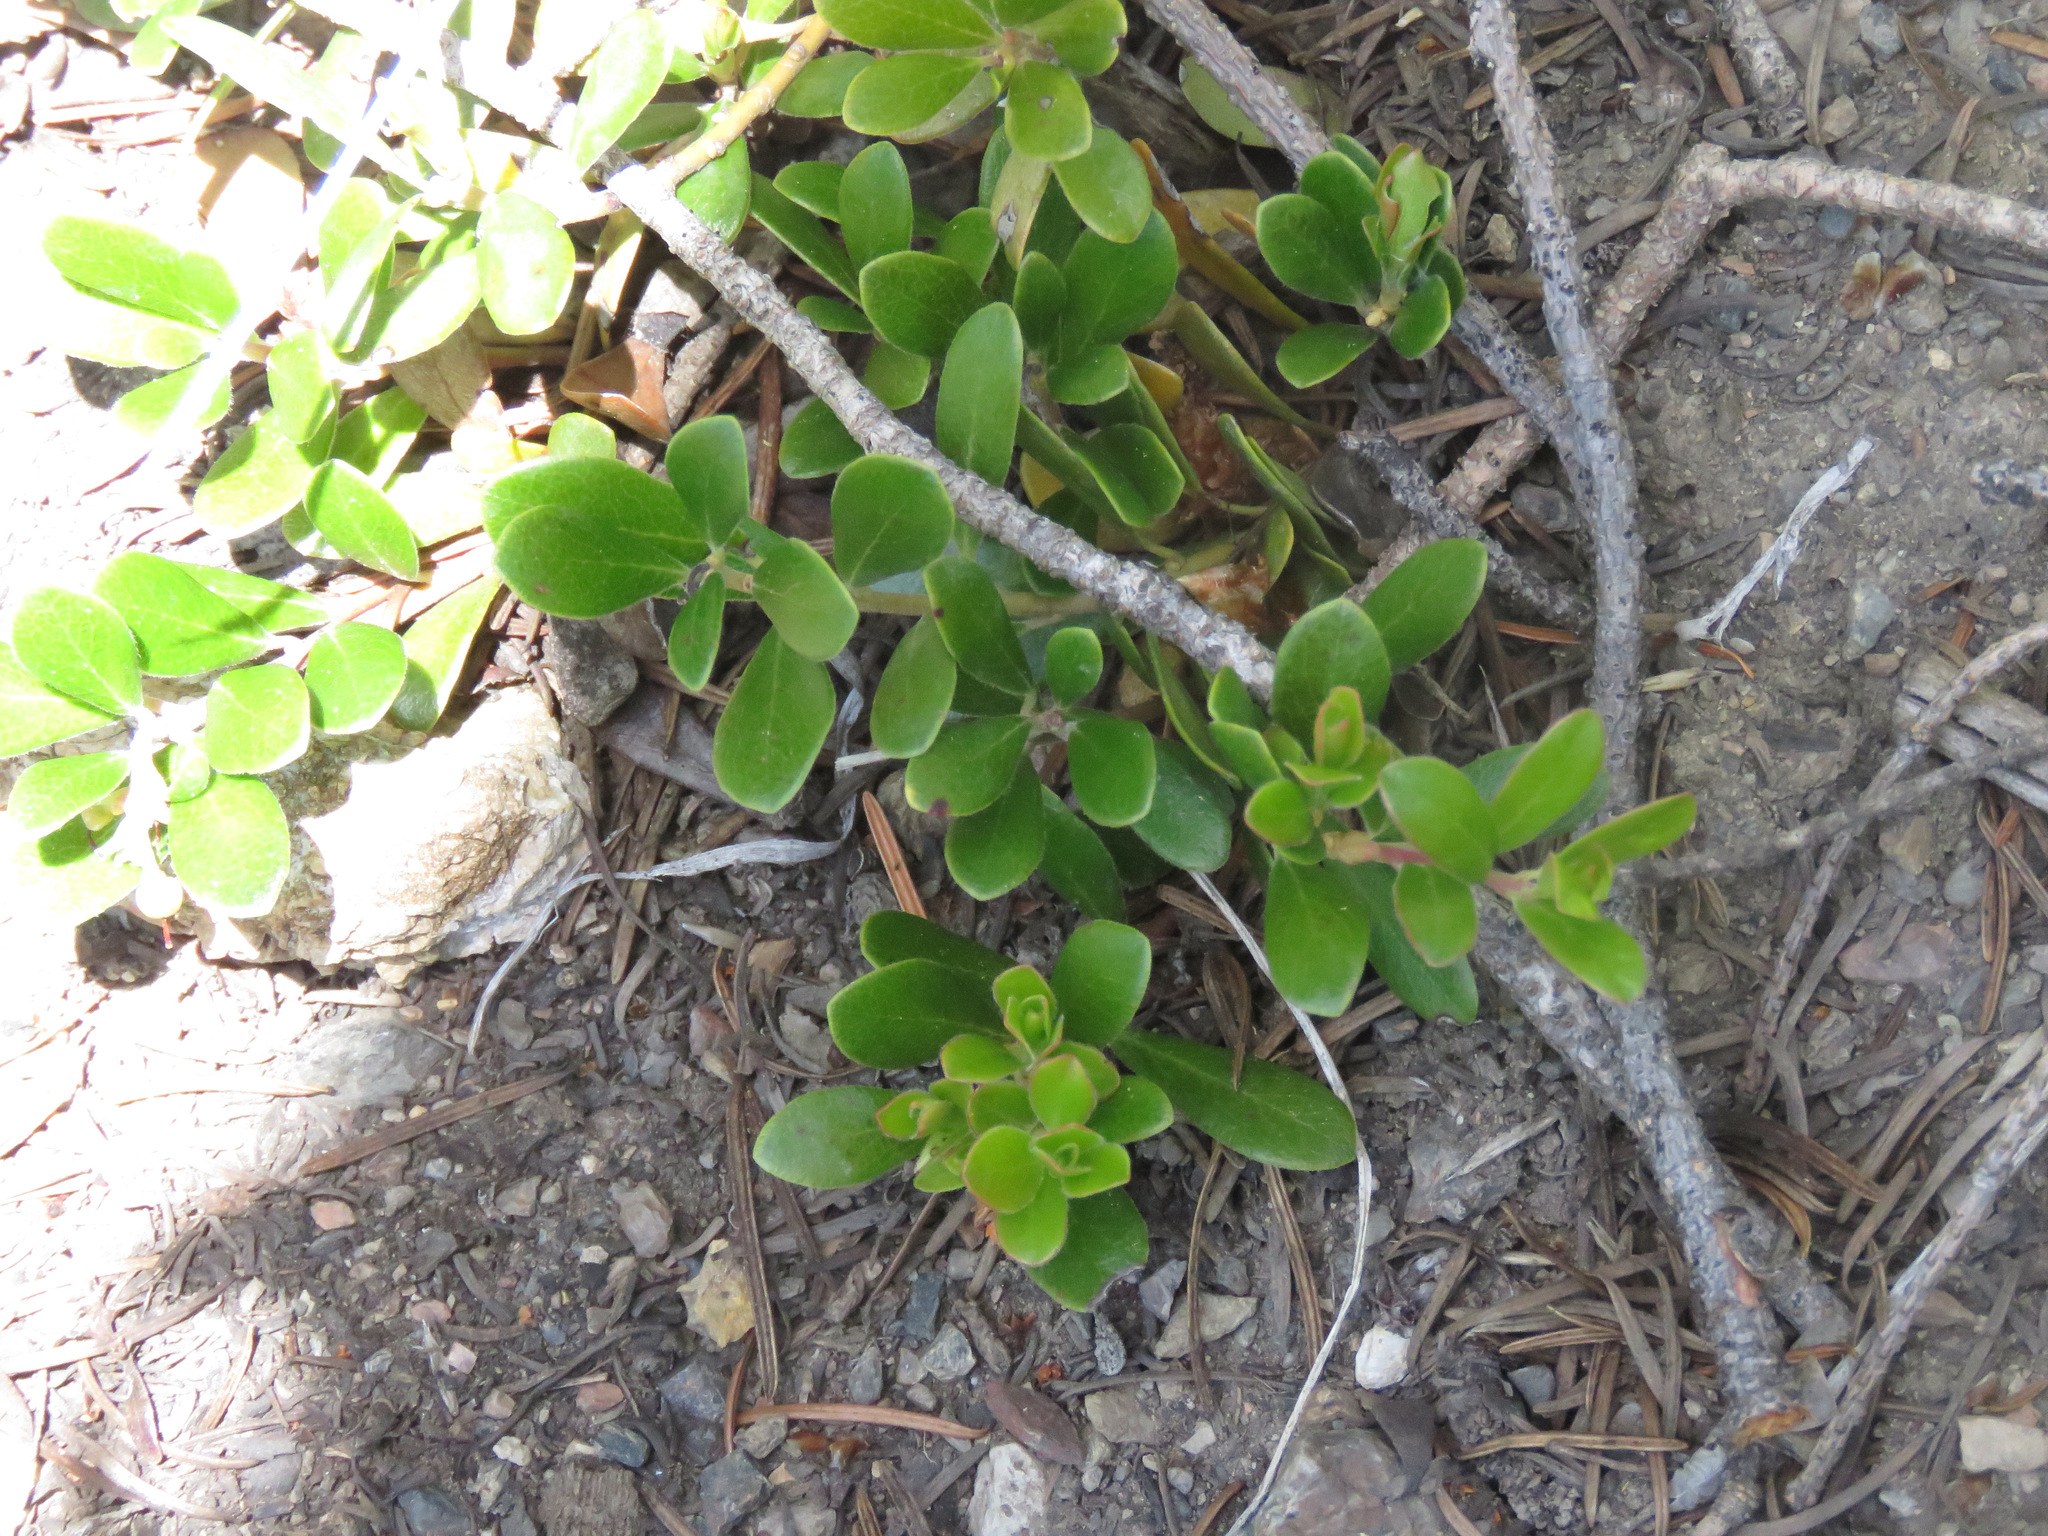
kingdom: Plantae
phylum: Tracheophyta
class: Magnoliopsida
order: Ericales
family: Ericaceae
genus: Arctostaphylos
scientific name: Arctostaphylos uva-ursi
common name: Bearberry
